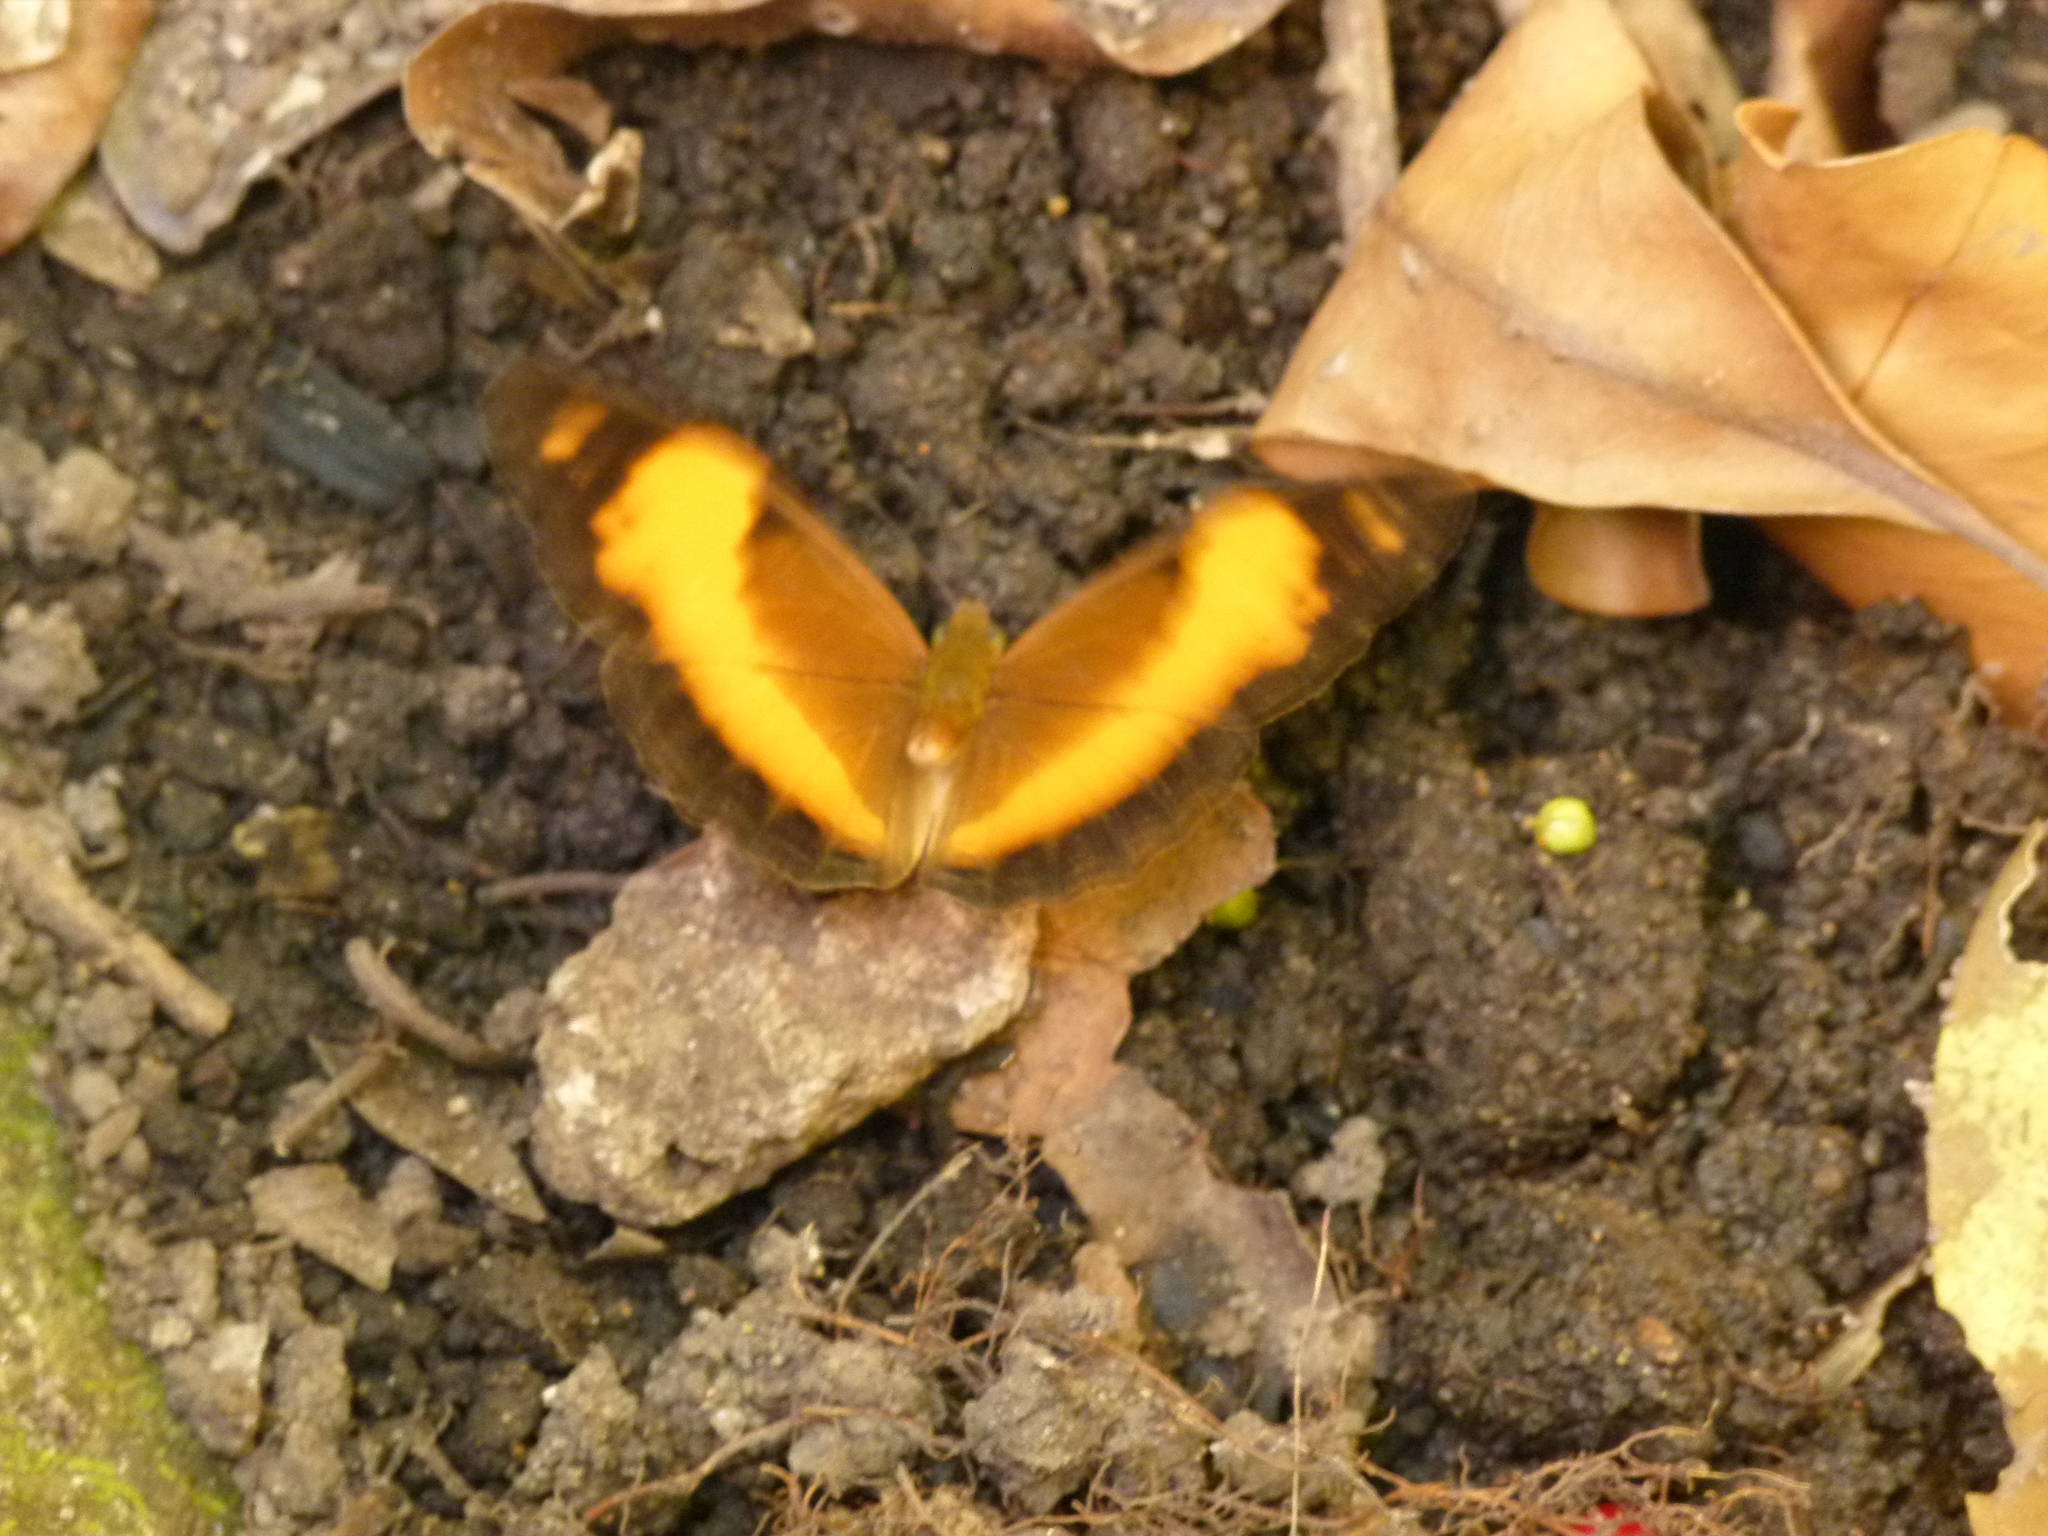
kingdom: Animalia
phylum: Arthropoda
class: Insecta
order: Lepidoptera
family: Nymphalidae
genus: Cupha
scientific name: Cupha prosope
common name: Bordered rustic
